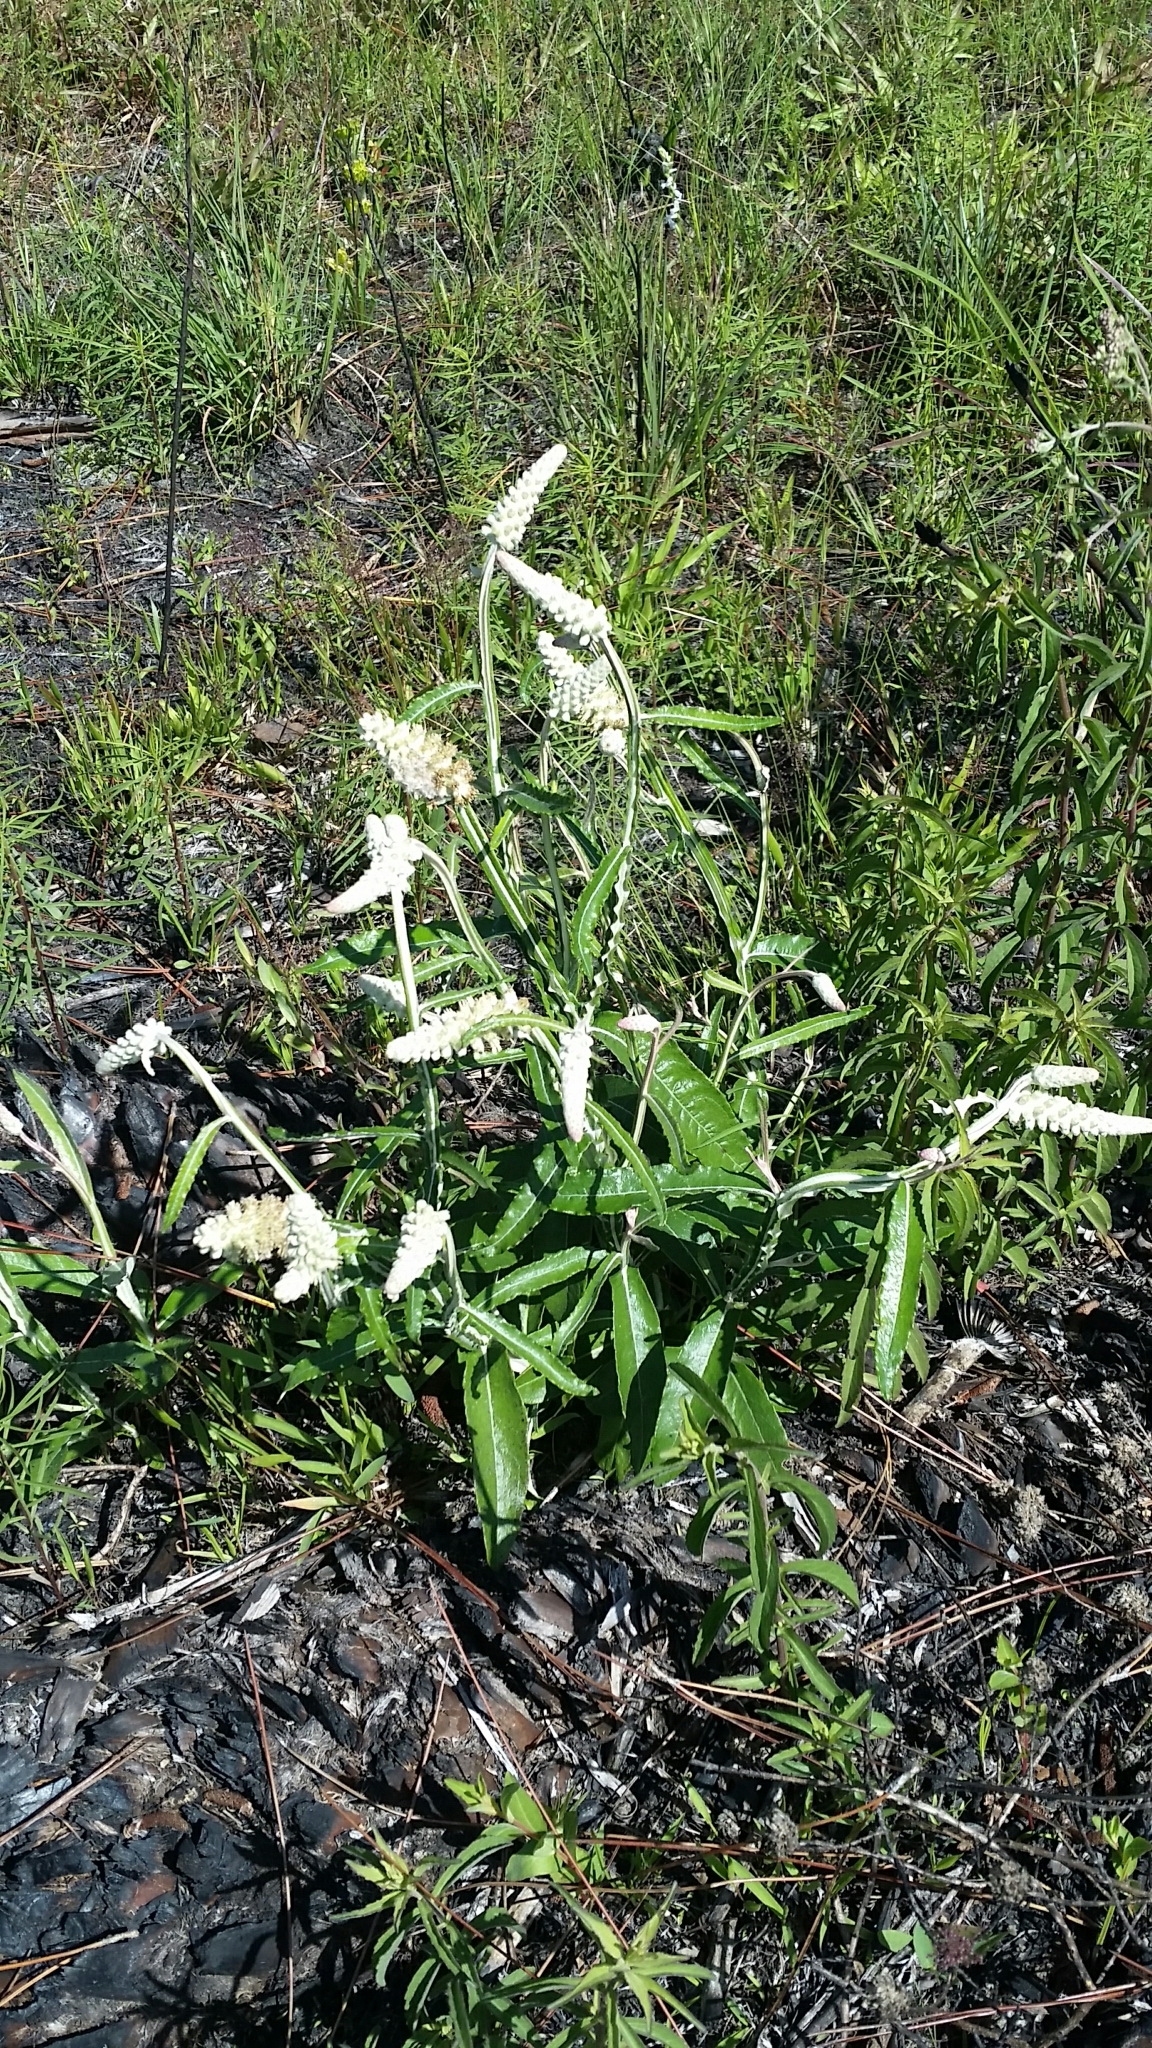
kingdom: Plantae
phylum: Tracheophyta
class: Magnoliopsida
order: Asterales
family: Asteraceae
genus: Pterocaulon
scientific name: Pterocaulon pycnostachyum
